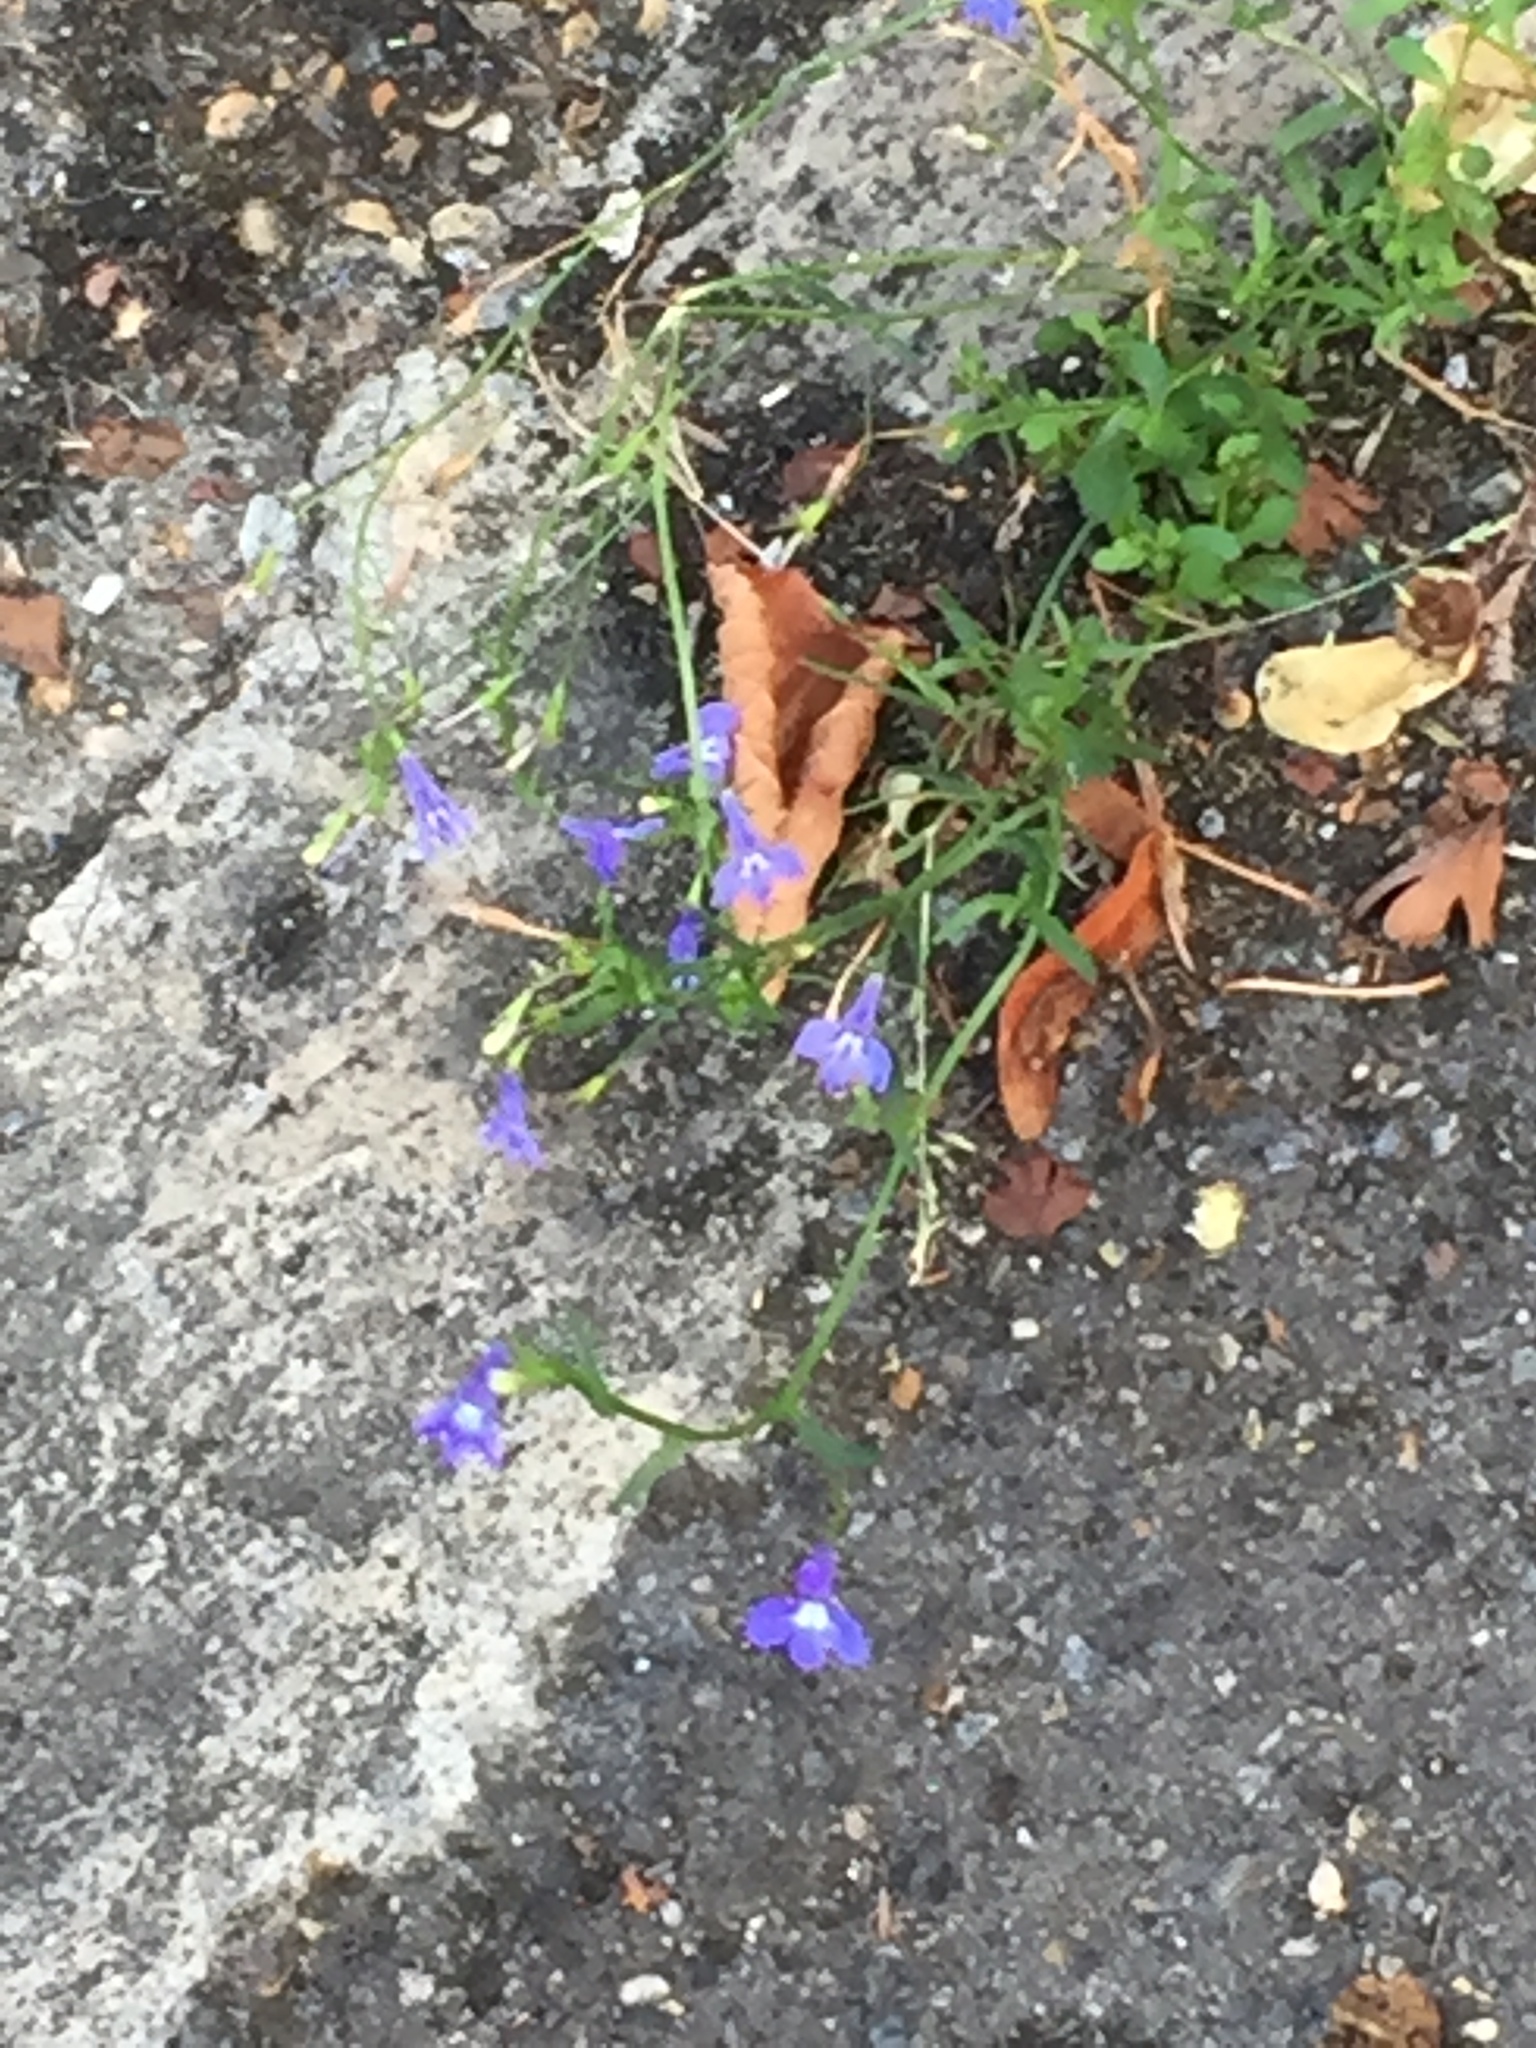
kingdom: Plantae
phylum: Tracheophyta
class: Magnoliopsida
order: Asterales
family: Campanulaceae
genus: Lobelia
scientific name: Lobelia erinus
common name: Edging lobelia
